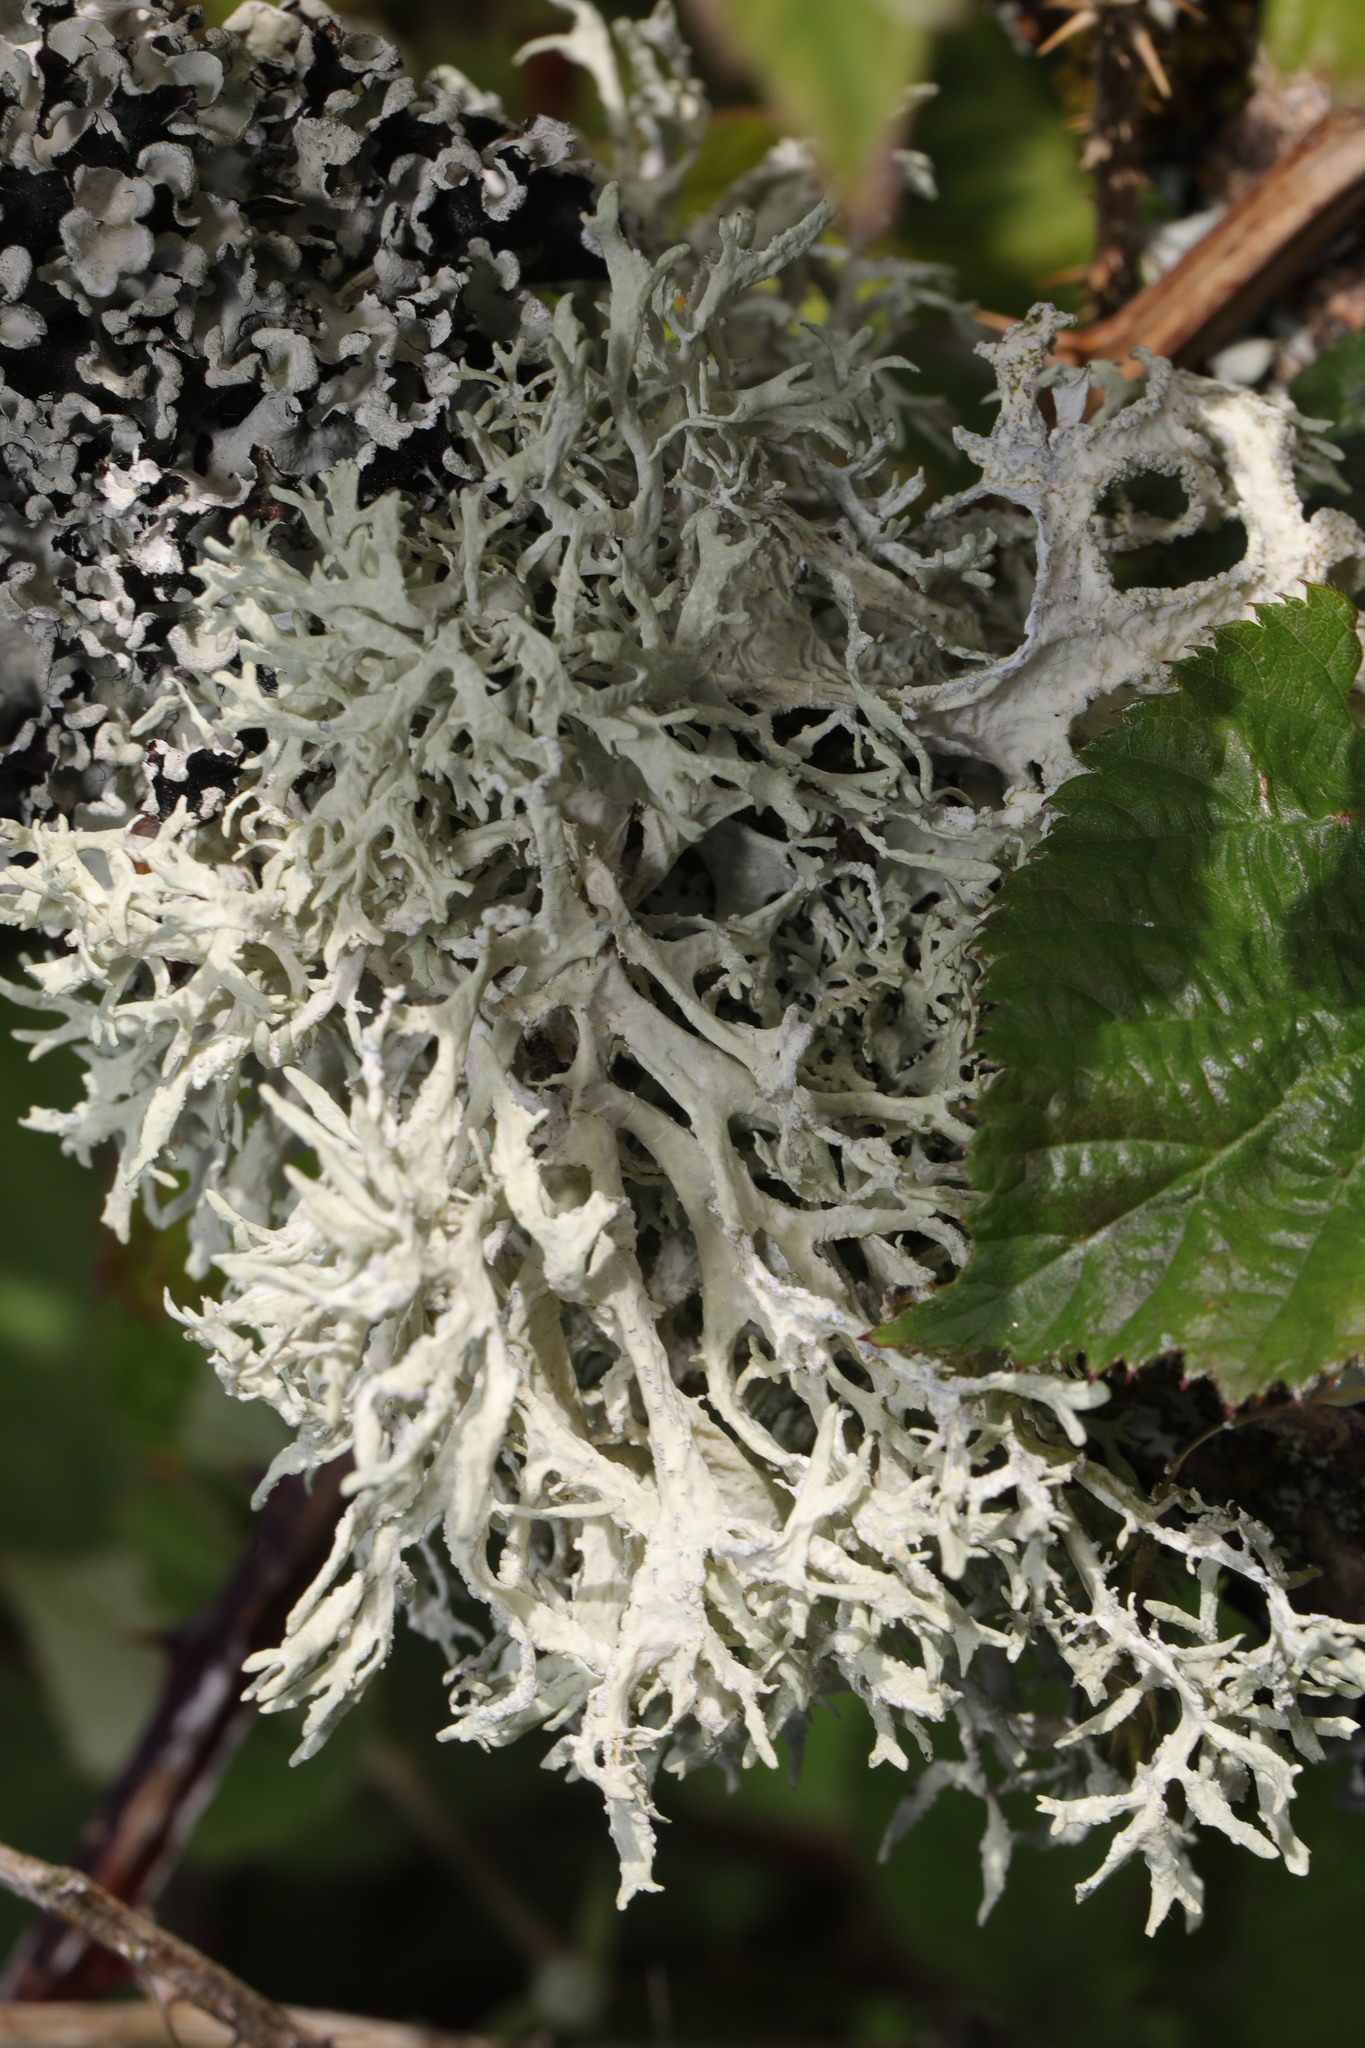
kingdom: Fungi
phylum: Ascomycota
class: Lecanoromycetes
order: Lecanorales
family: Parmeliaceae
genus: Evernia
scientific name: Evernia prunastri
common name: Oak moss
